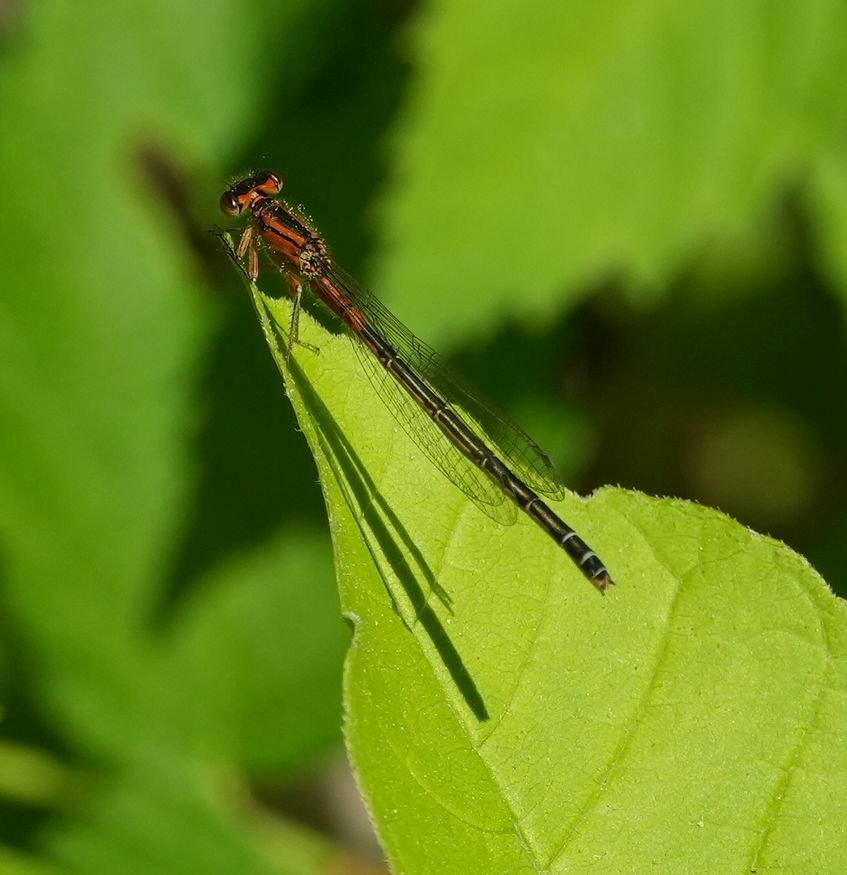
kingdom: Animalia
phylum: Arthropoda
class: Insecta
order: Odonata
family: Coenagrionidae
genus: Ischnura
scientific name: Ischnura verticalis
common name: Eastern forktail
